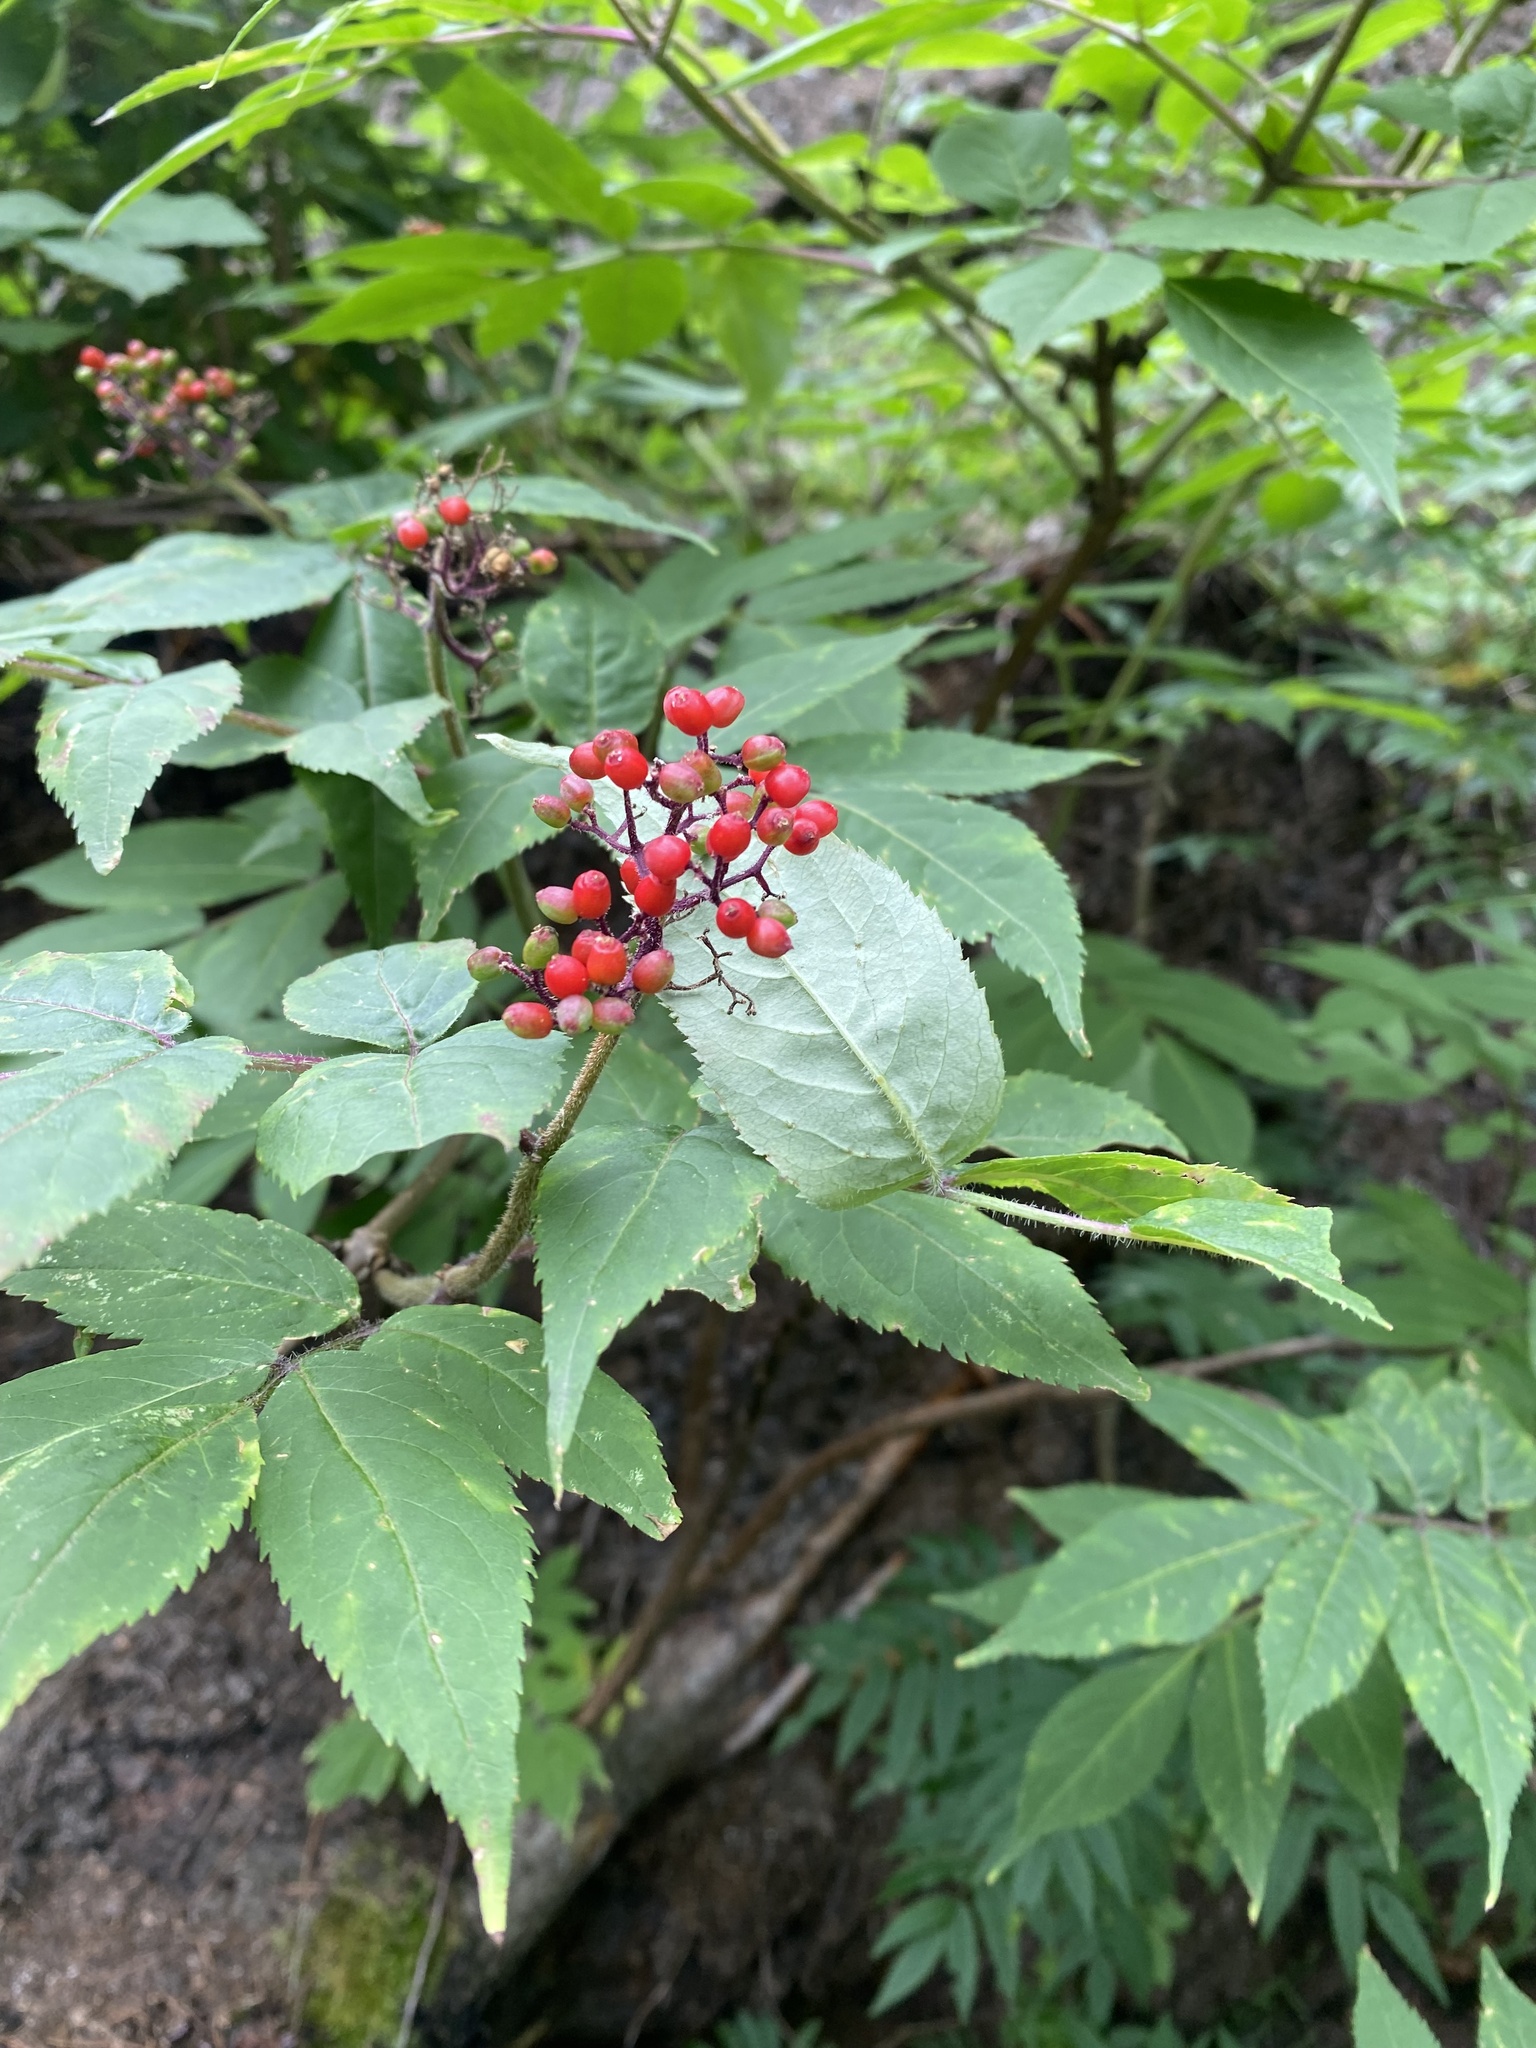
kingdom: Plantae
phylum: Tracheophyta
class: Magnoliopsida
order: Dipsacales
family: Viburnaceae
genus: Sambucus
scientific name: Sambucus sibirica
